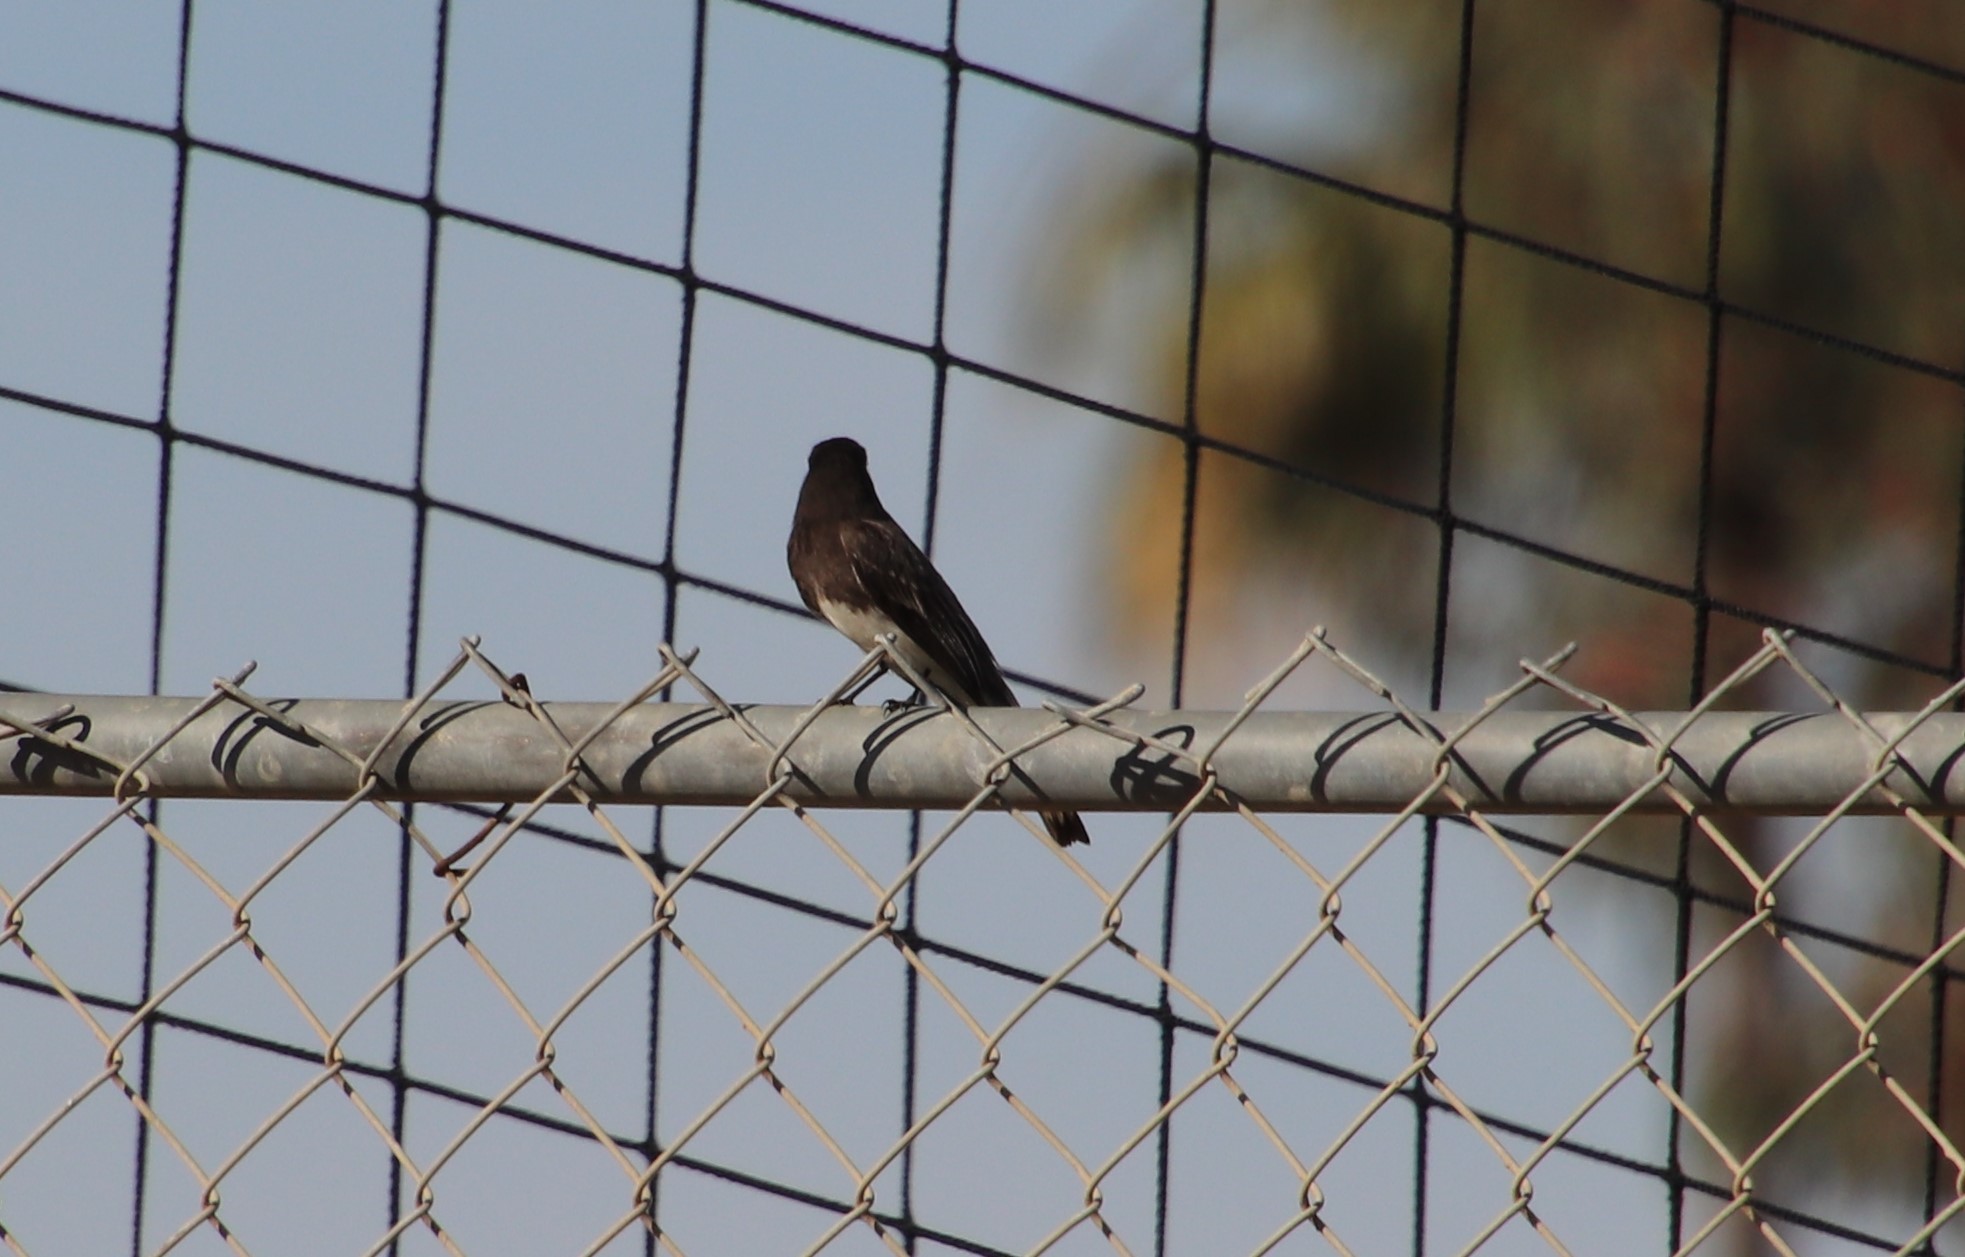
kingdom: Animalia
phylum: Chordata
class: Aves
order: Passeriformes
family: Tyrannidae
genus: Sayornis
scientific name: Sayornis nigricans
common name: Black phoebe
